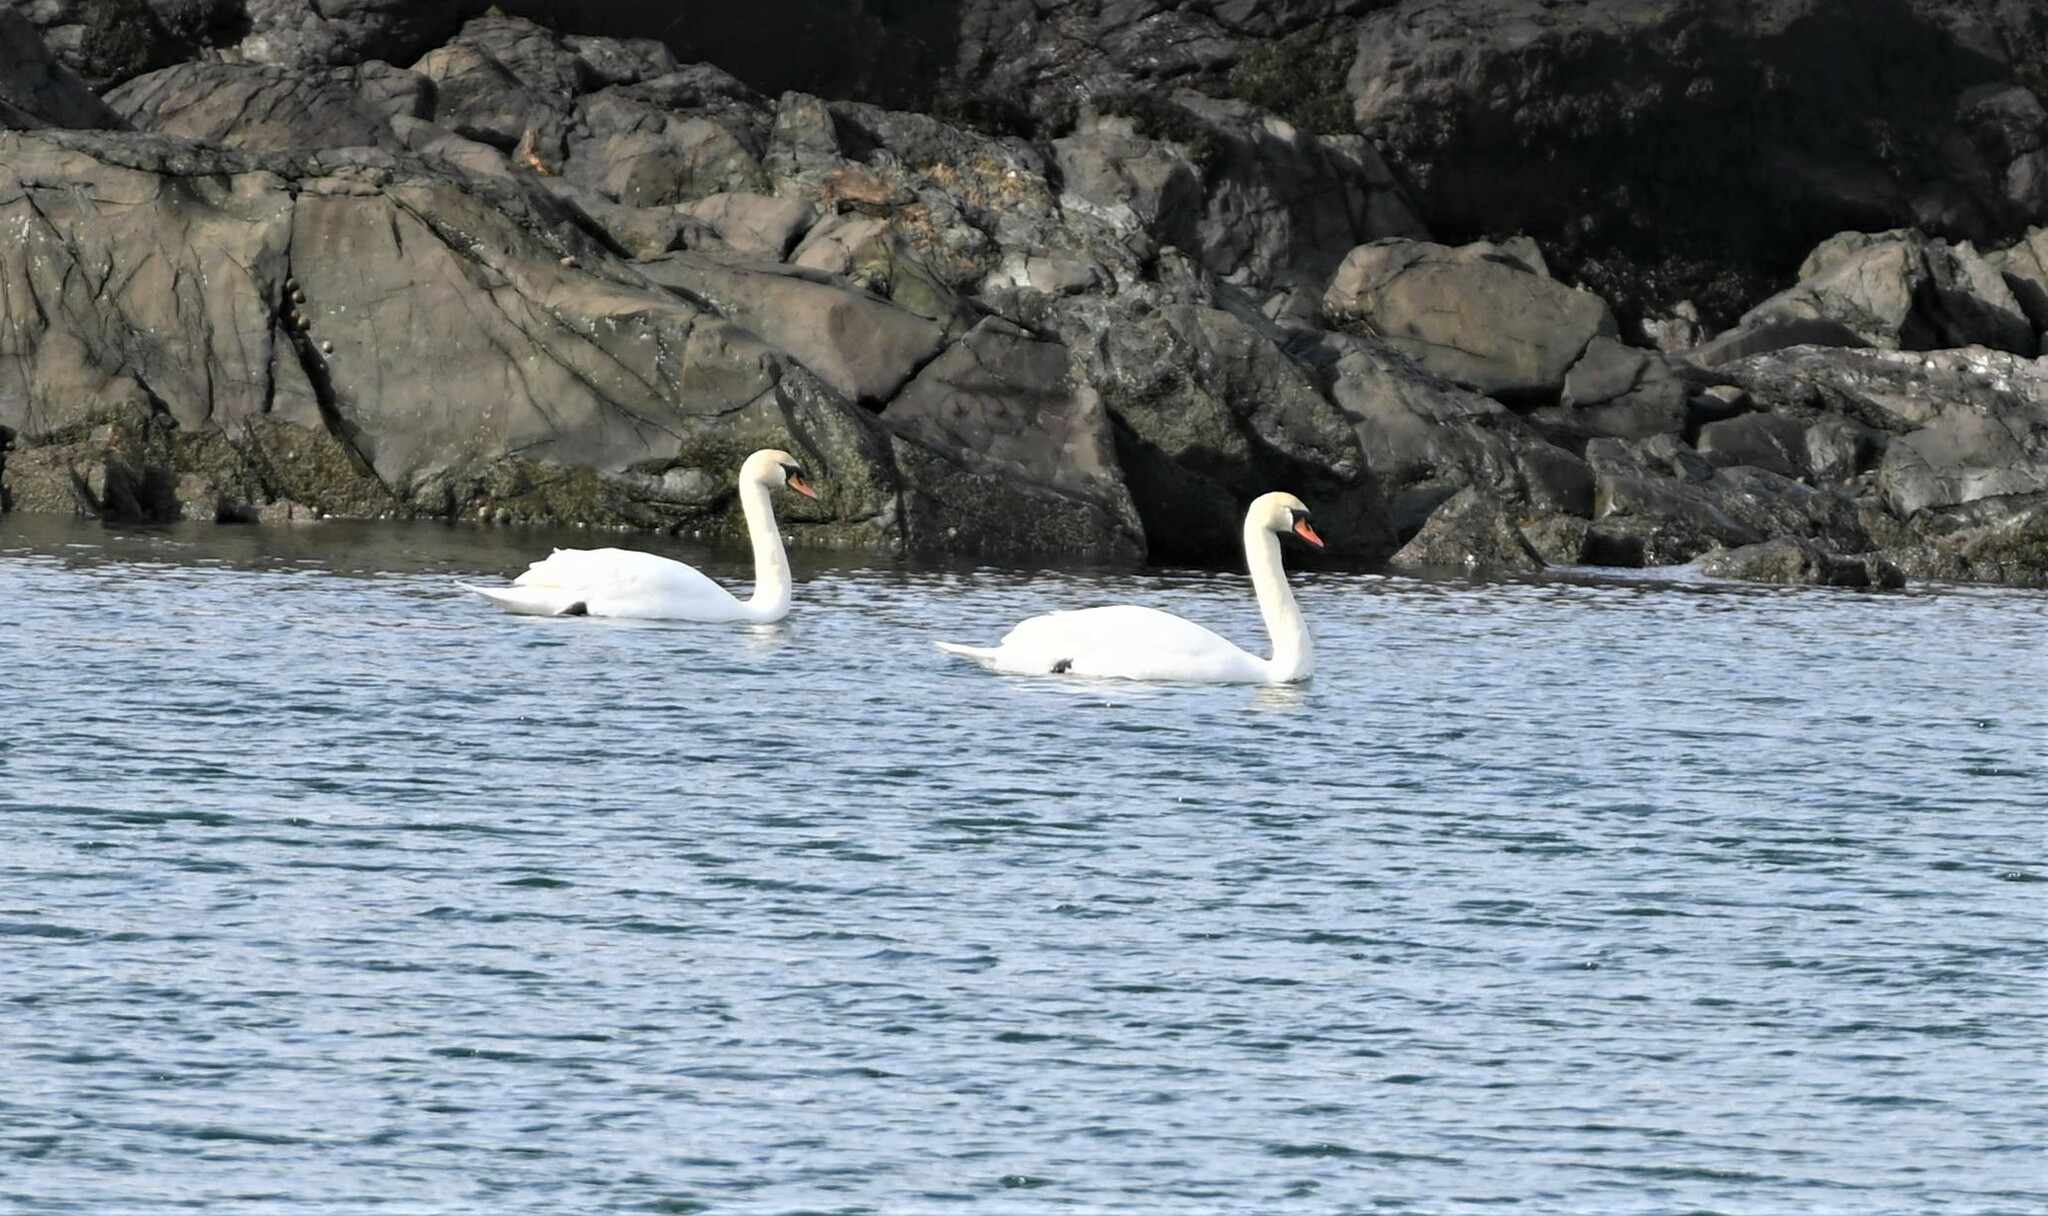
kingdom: Animalia
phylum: Chordata
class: Aves
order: Anseriformes
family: Anatidae
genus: Cygnus
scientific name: Cygnus olor
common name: Mute swan
